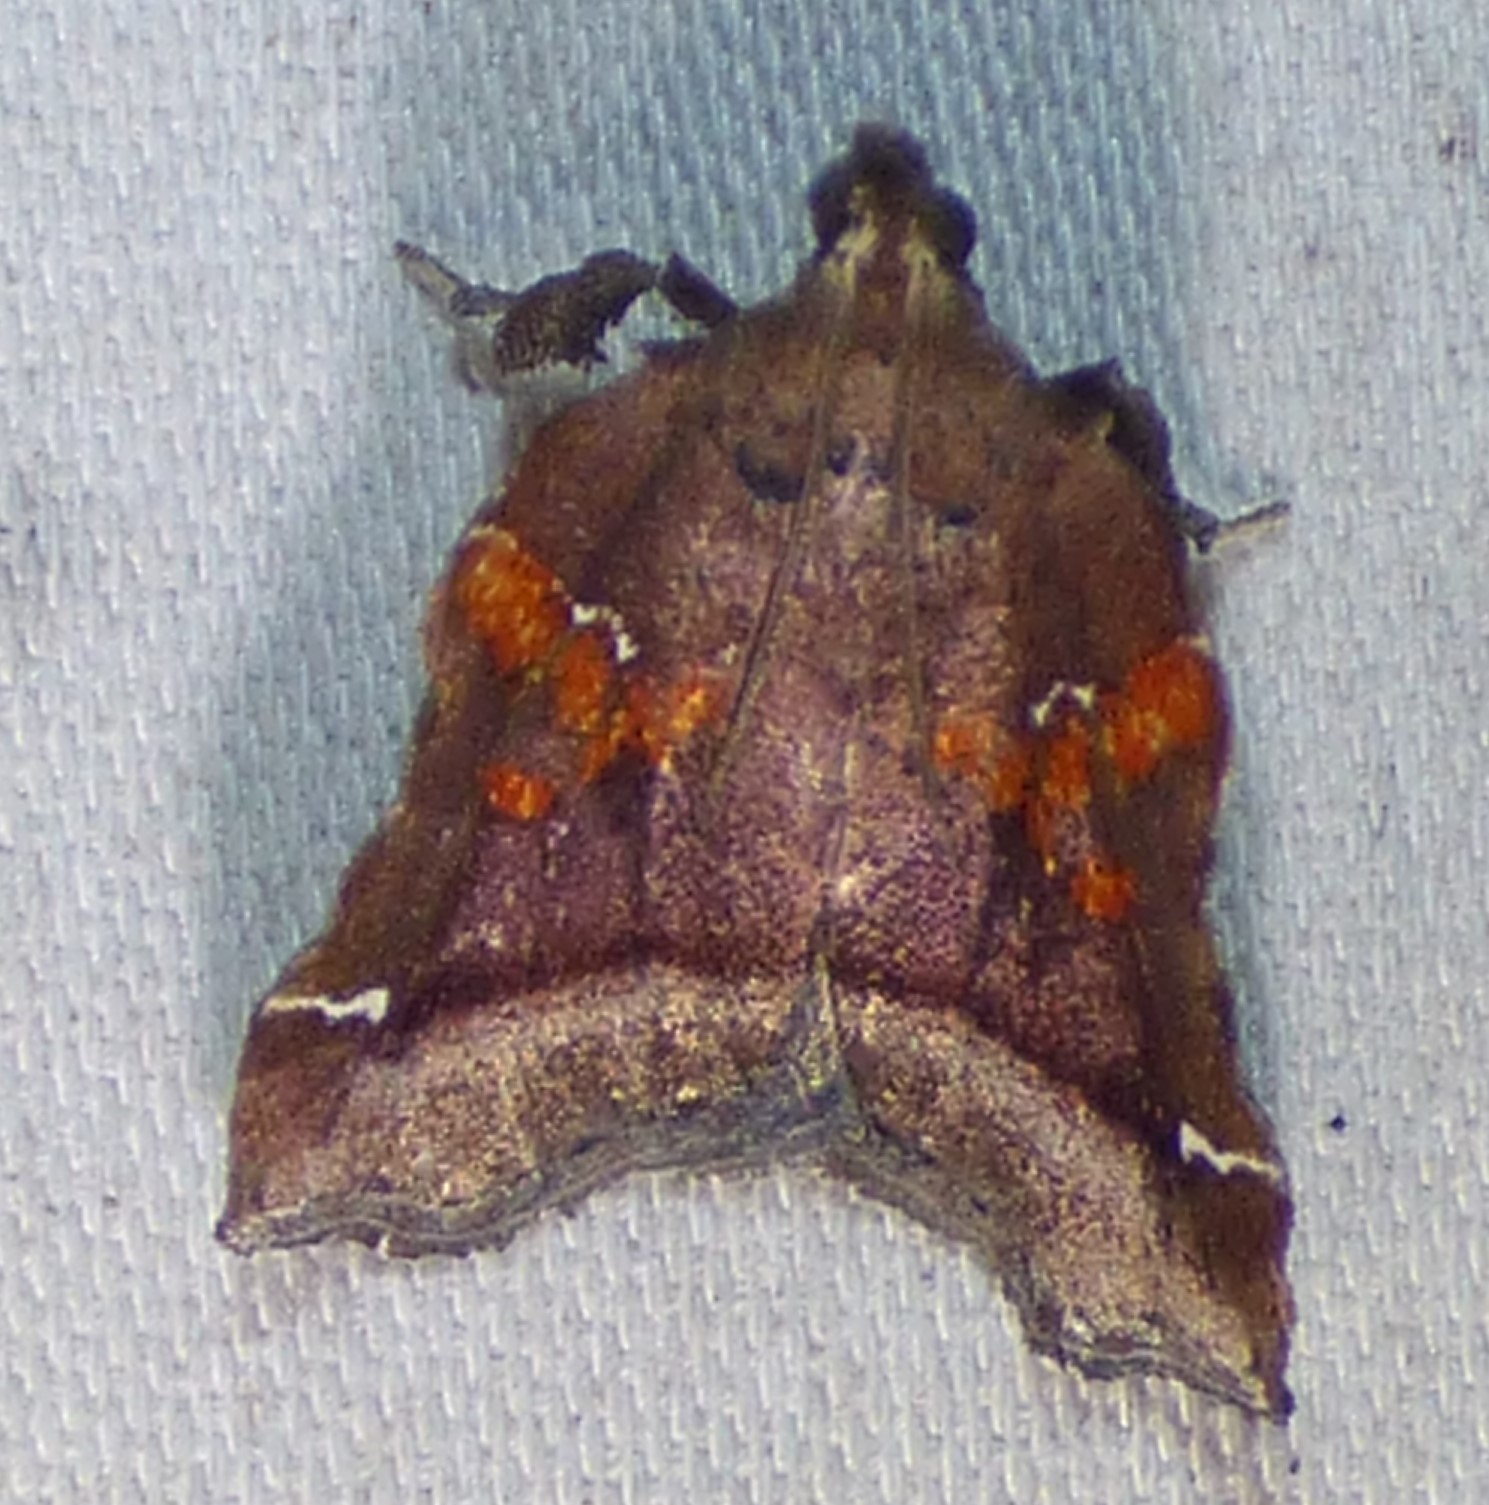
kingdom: Animalia
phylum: Arthropoda
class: Insecta
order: Lepidoptera
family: Pyralidae
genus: Clydonopteron
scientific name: Clydonopteron sacculana
